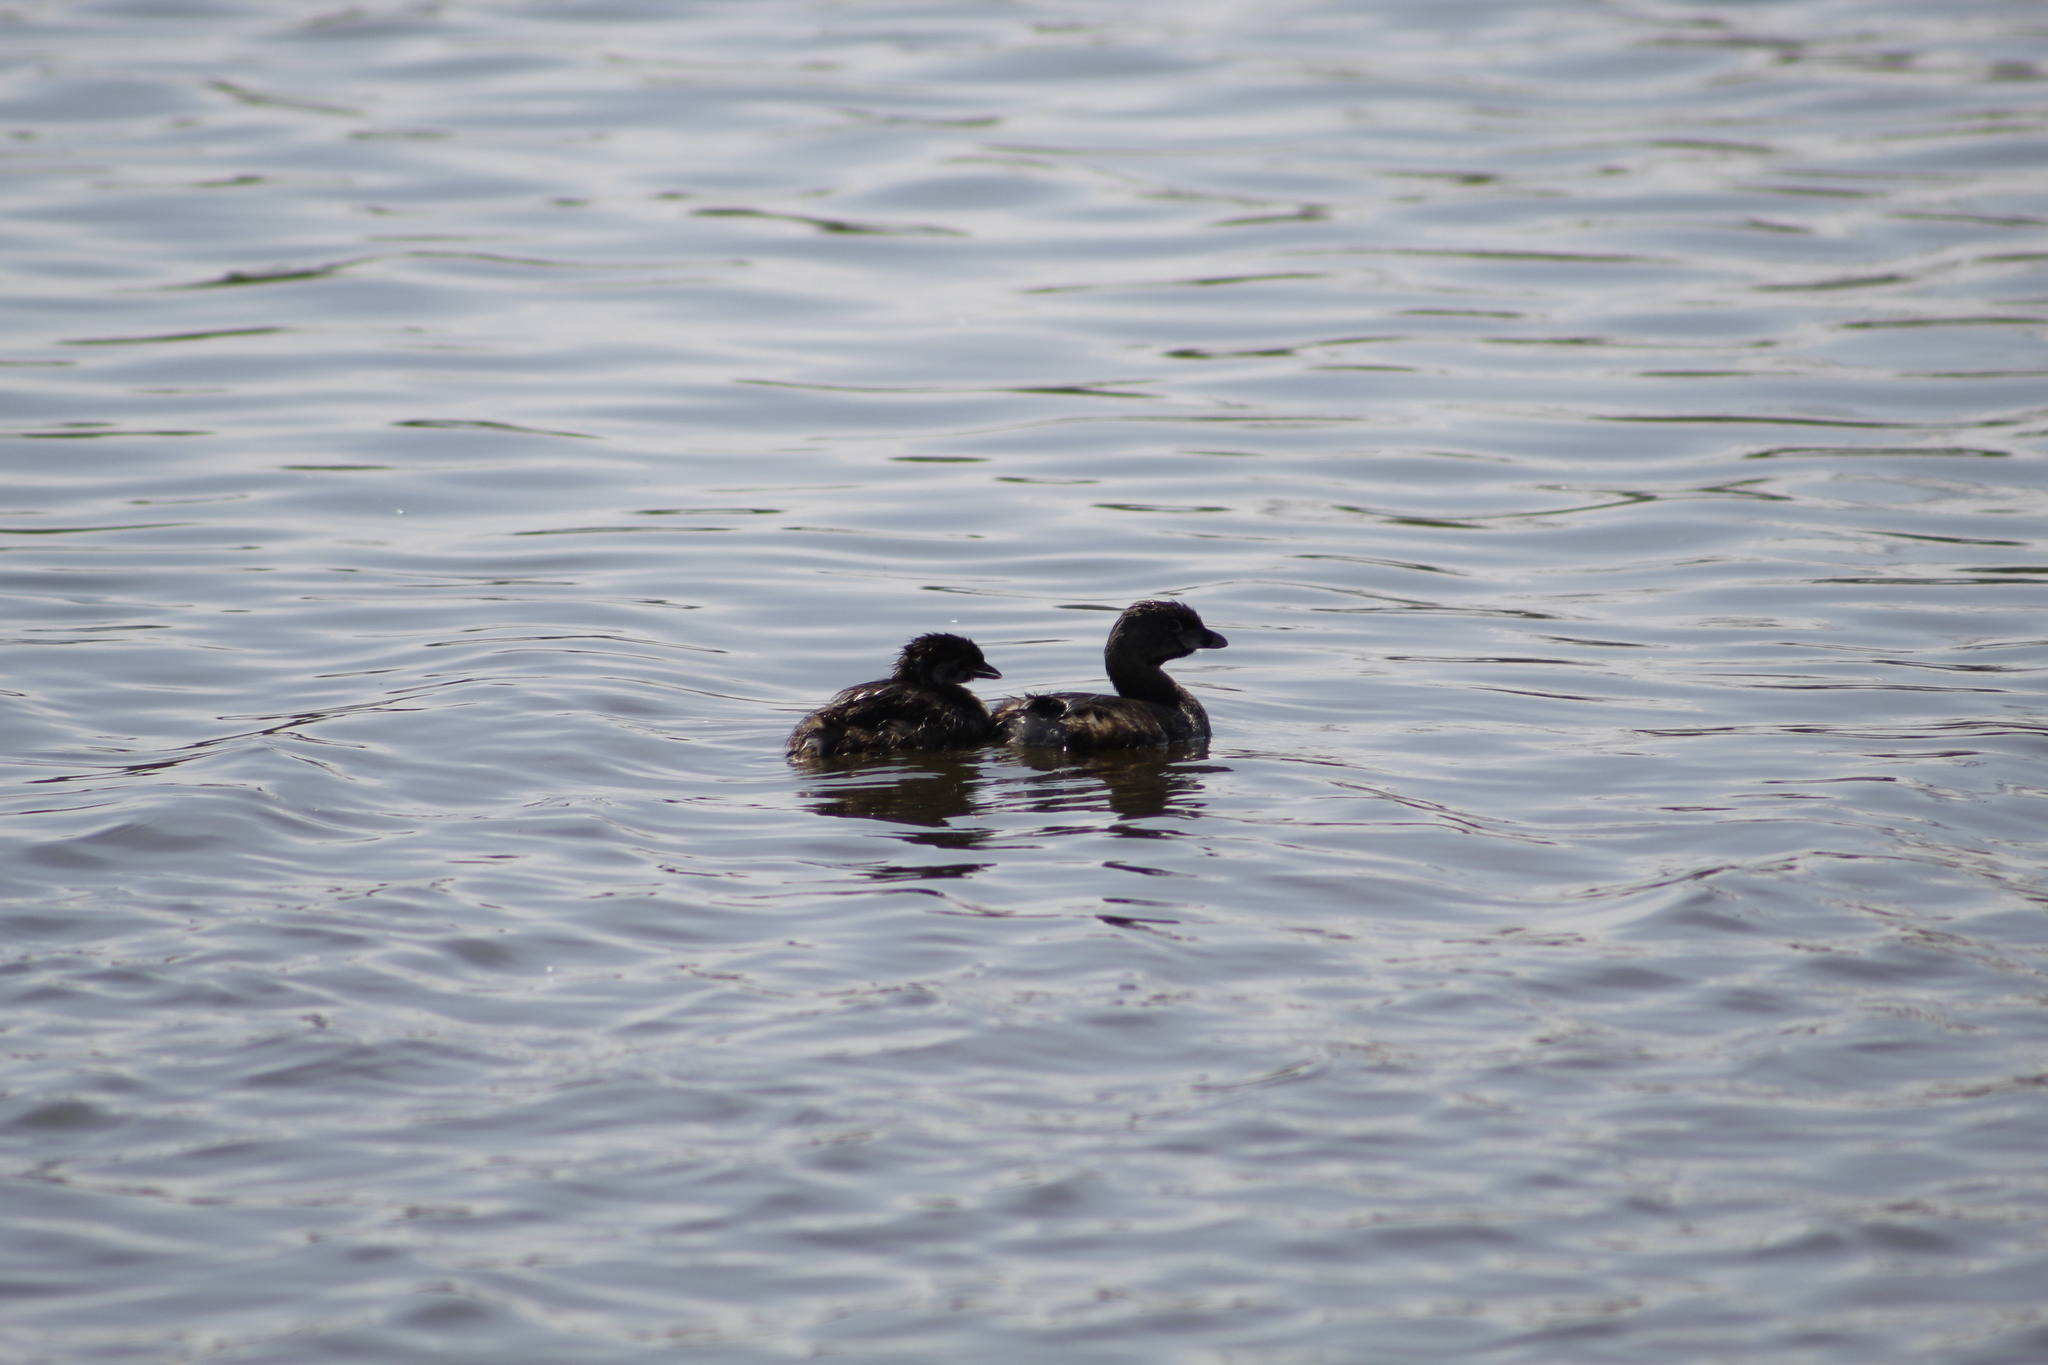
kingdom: Animalia
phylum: Chordata
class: Aves
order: Podicipediformes
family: Podicipedidae
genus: Podilymbus
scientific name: Podilymbus podiceps
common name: Pied-billed grebe
